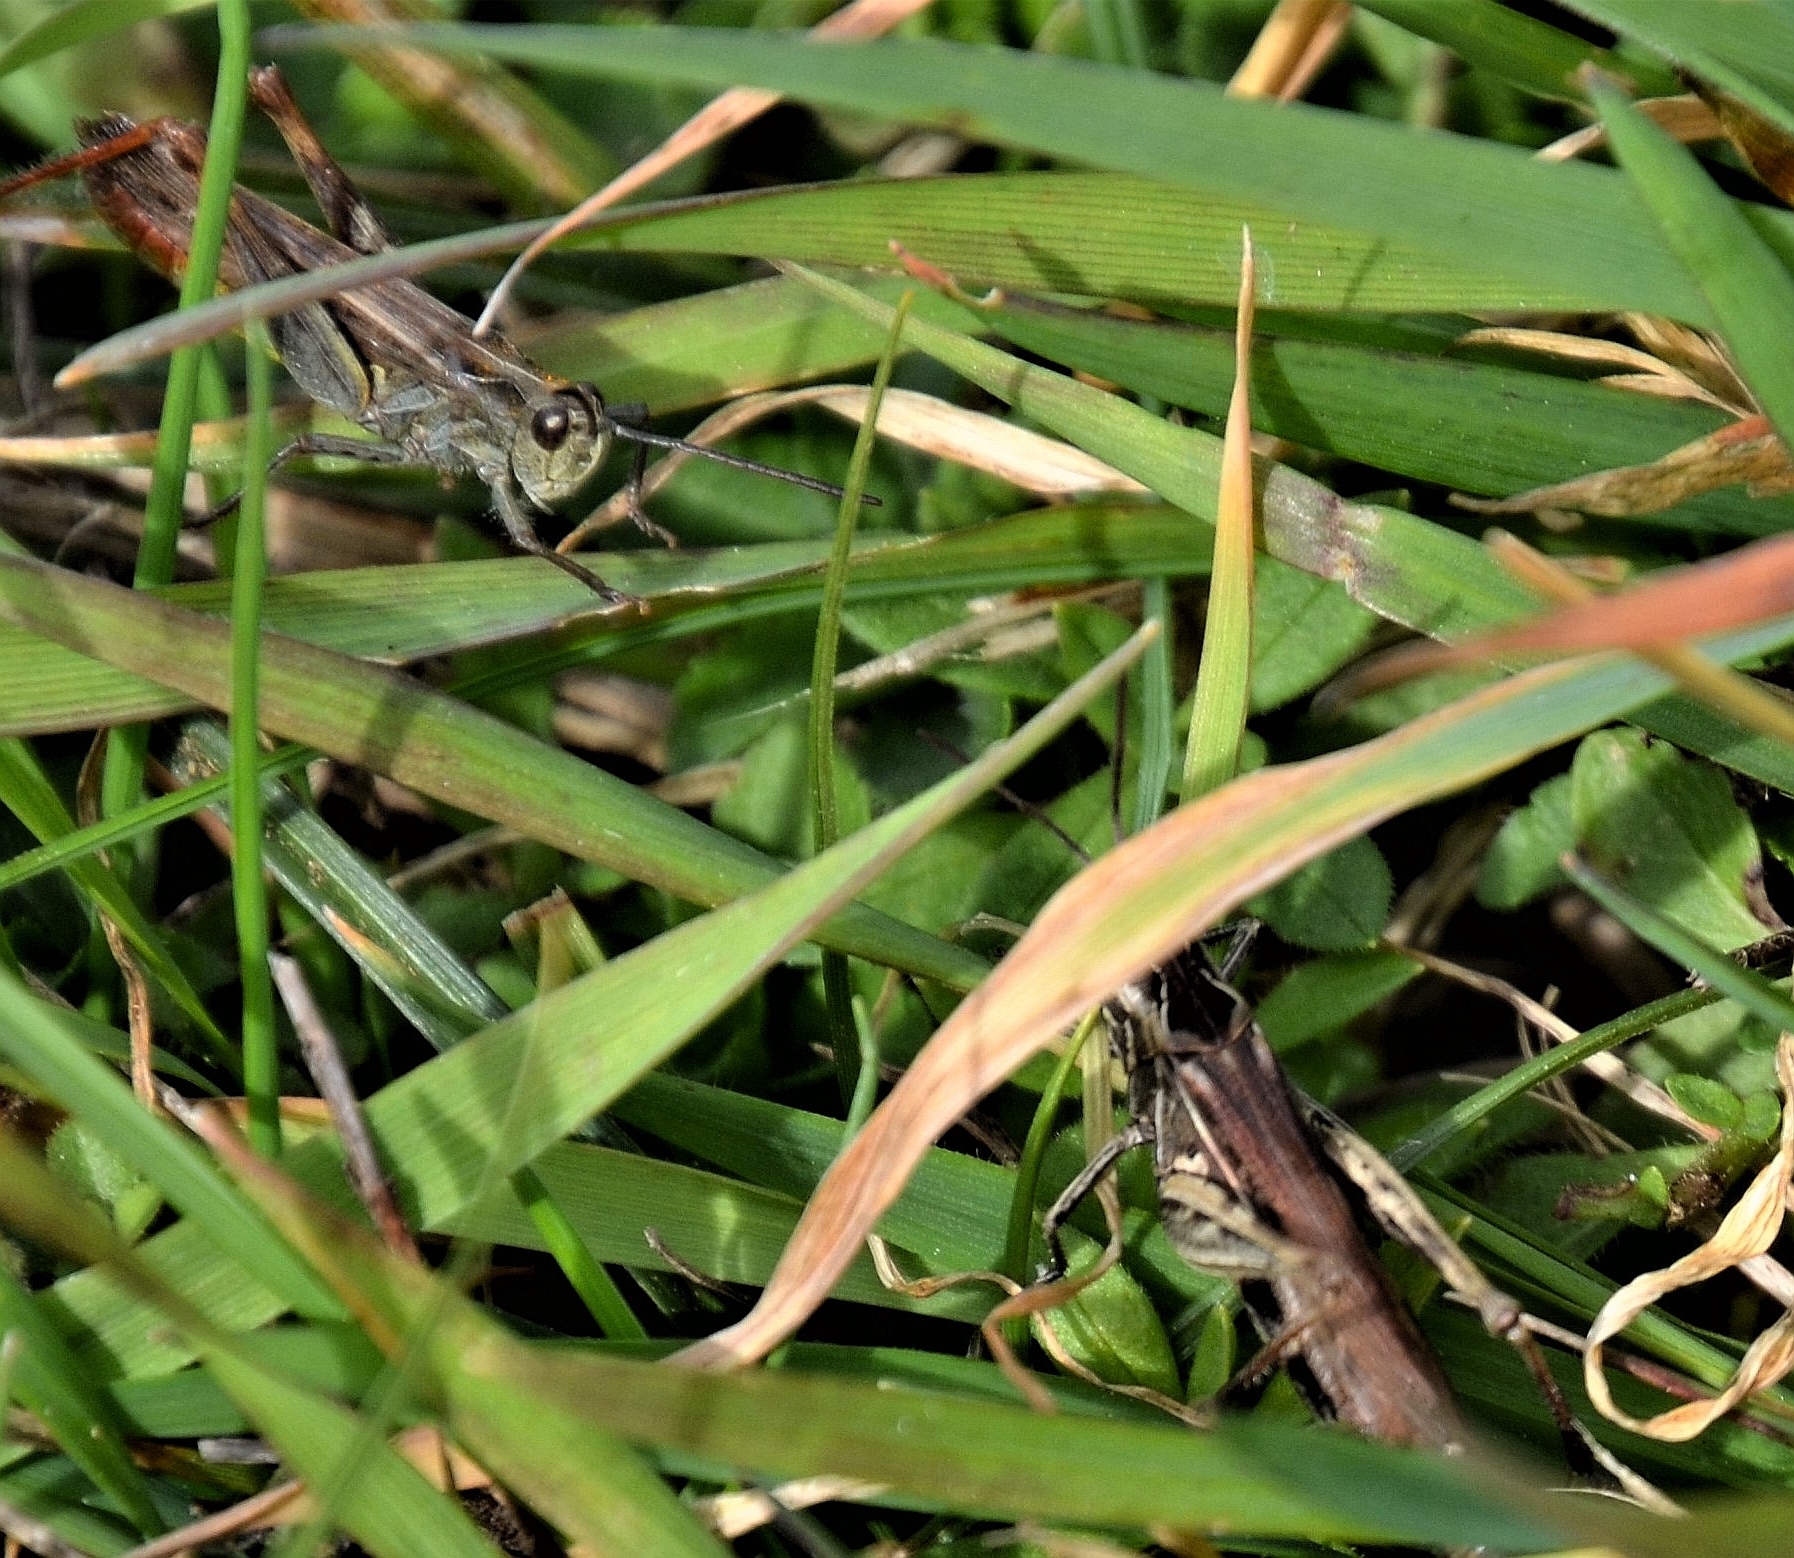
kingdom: Animalia
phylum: Arthropoda
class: Insecta
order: Orthoptera
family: Acrididae
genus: Chorthippus
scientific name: Chorthippus biguttulus
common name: Bow-winged grasshopper
